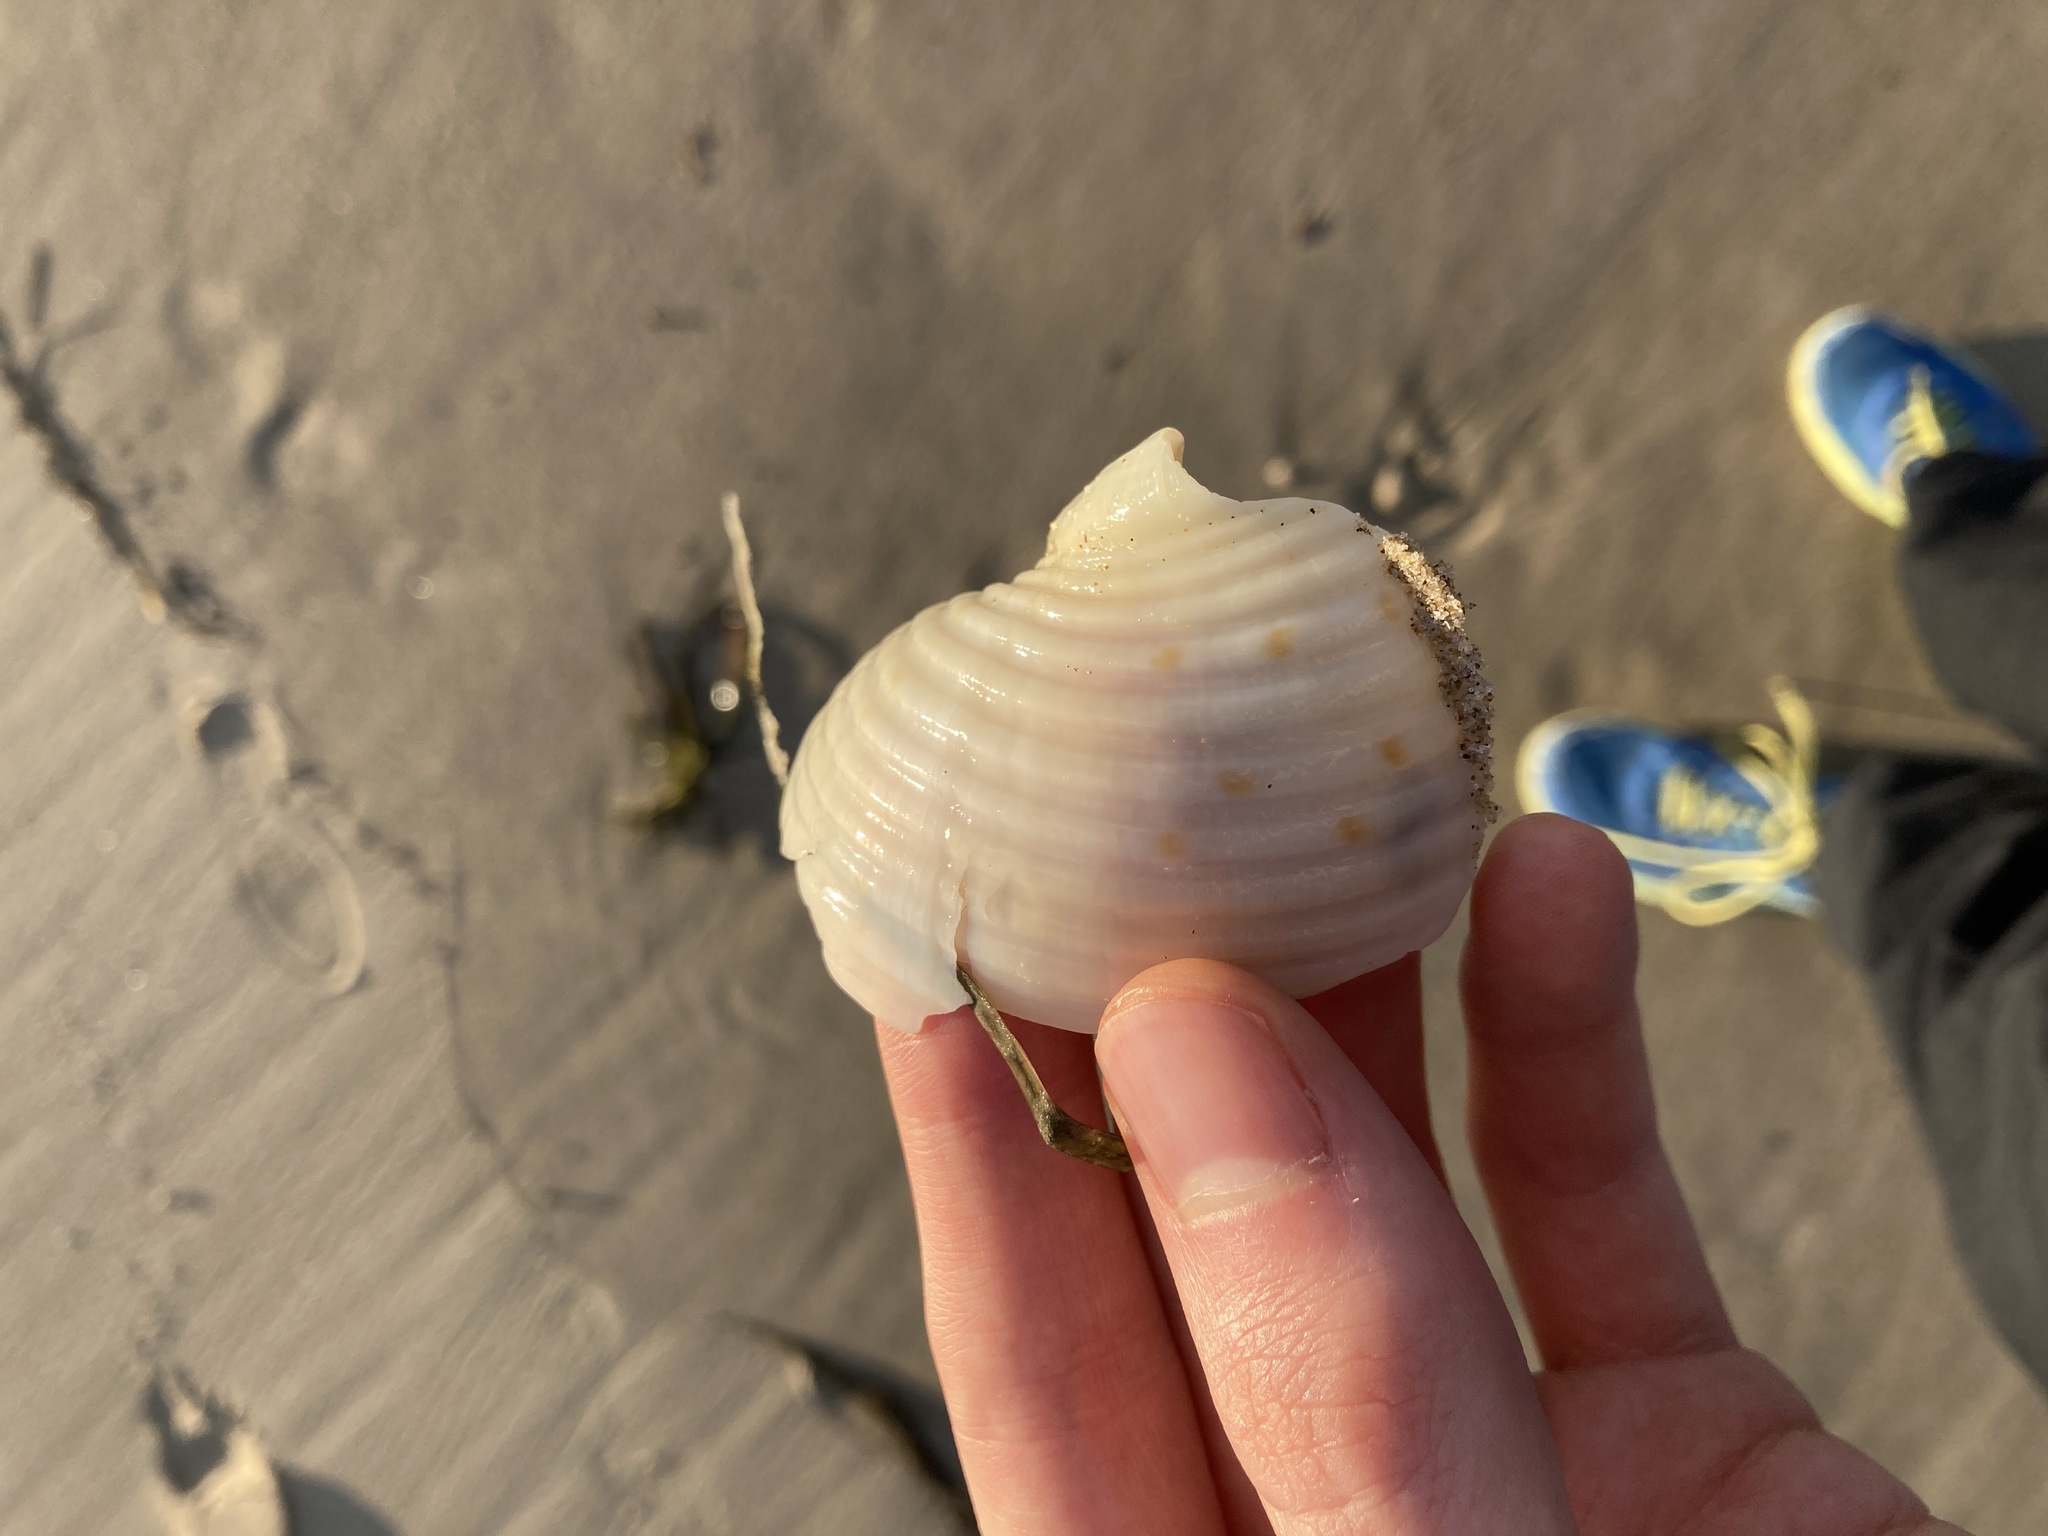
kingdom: Animalia
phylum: Mollusca
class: Gastropoda
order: Littorinimorpha
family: Tonnidae
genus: Tonna
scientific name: Tonna tankervillii
